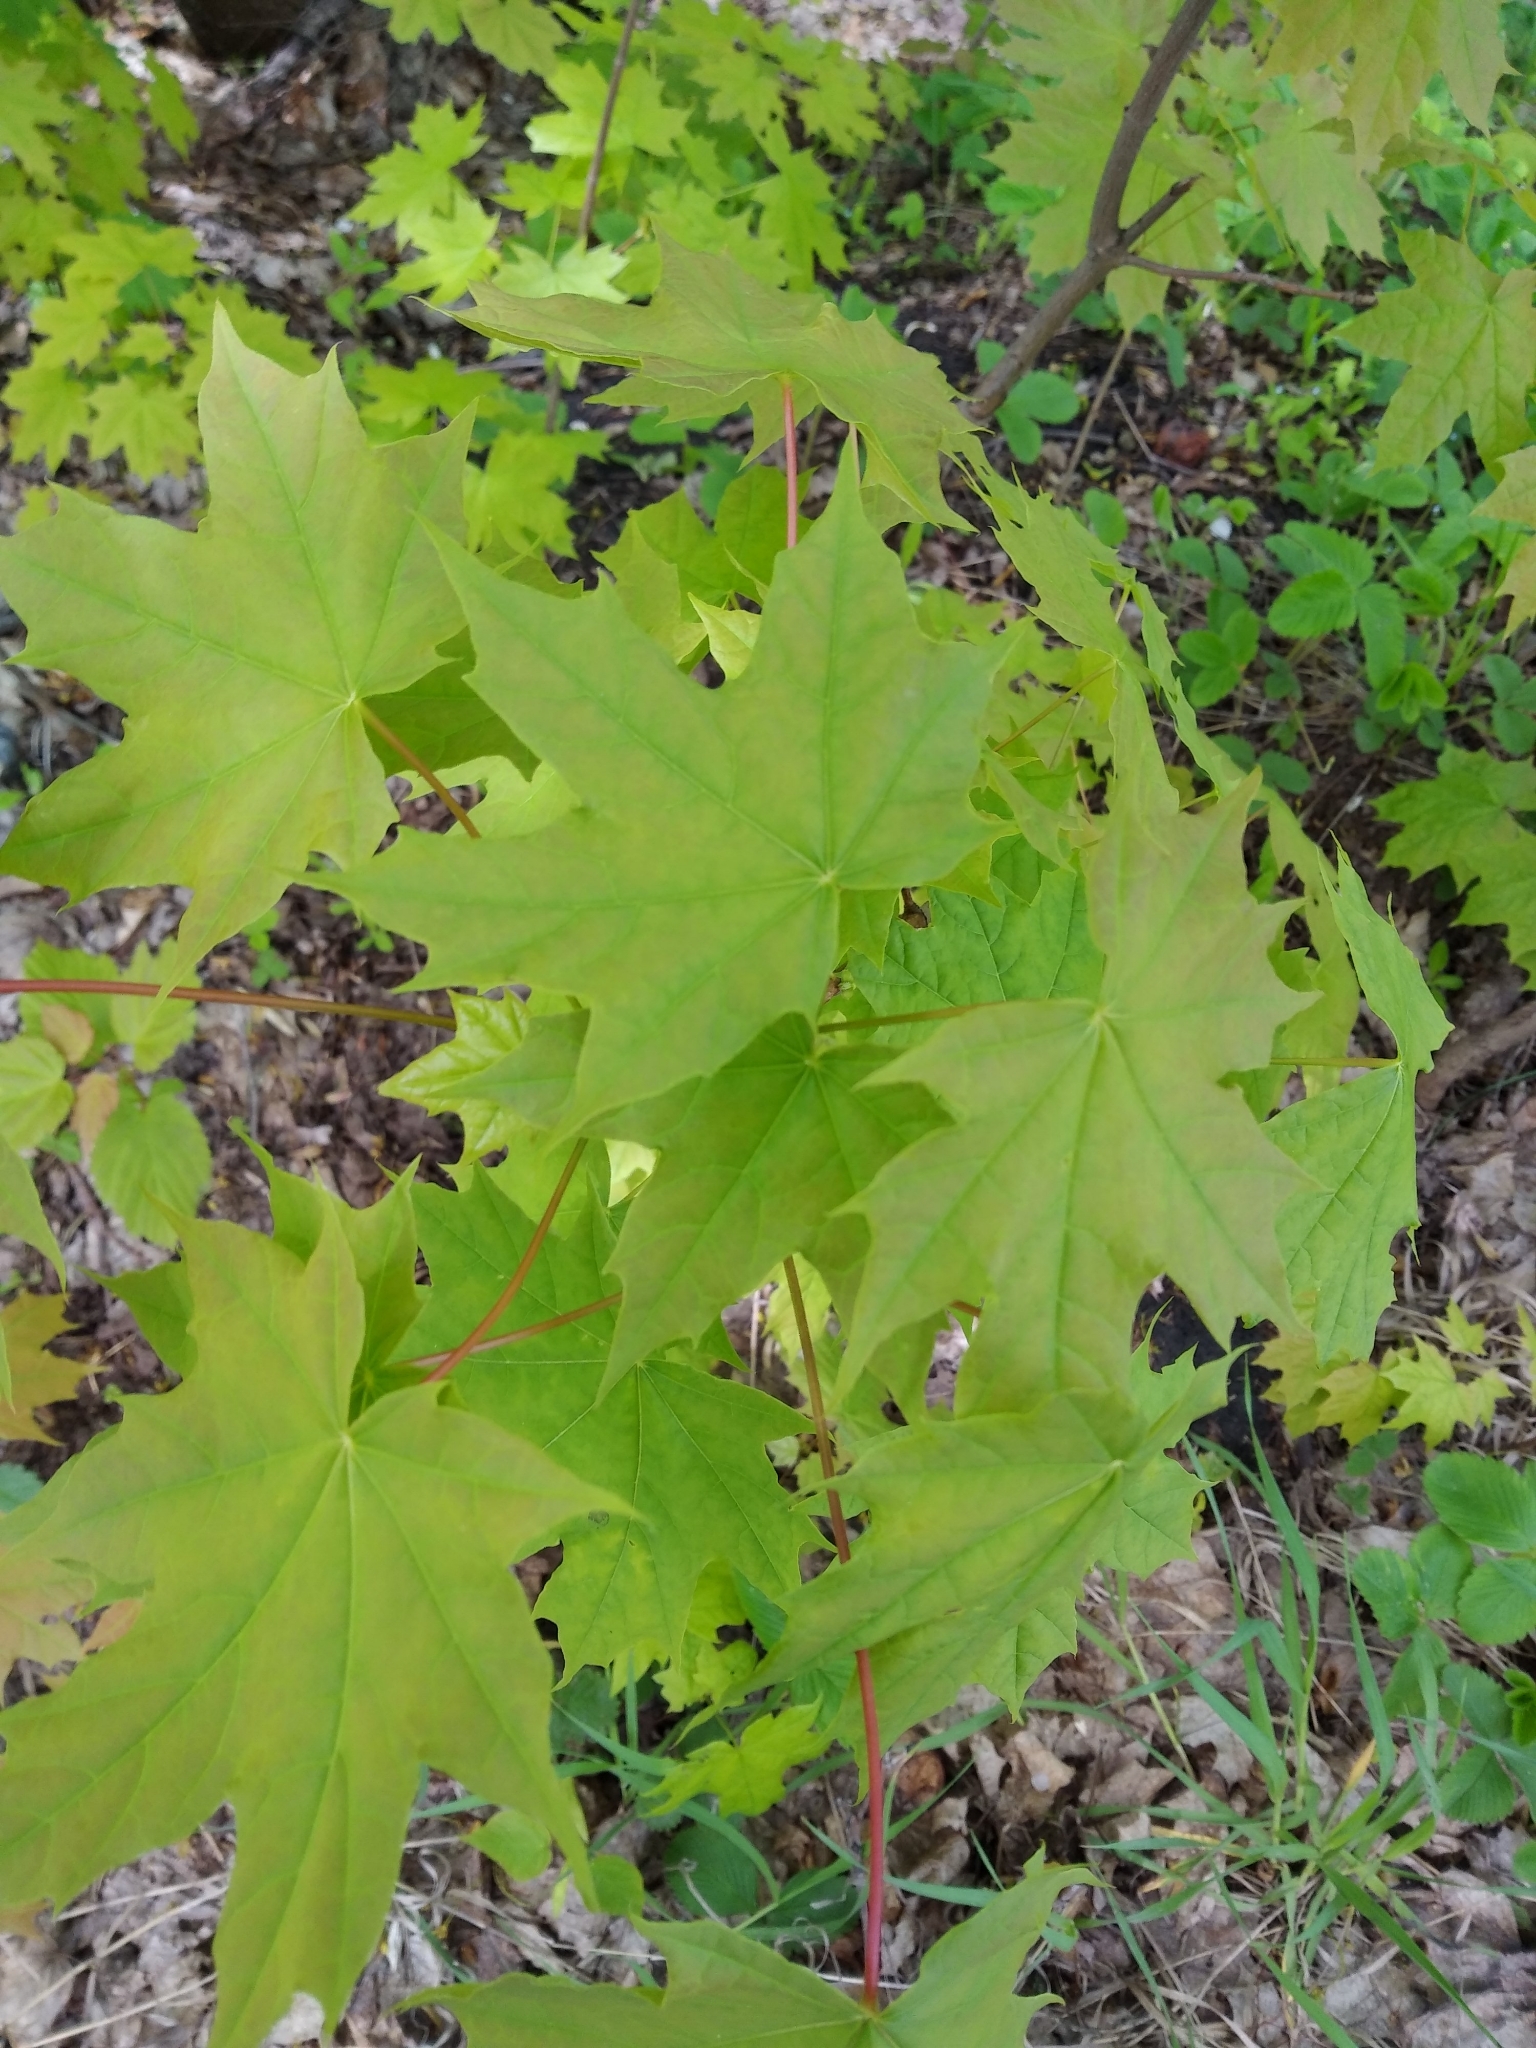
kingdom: Plantae
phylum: Tracheophyta
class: Magnoliopsida
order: Sapindales
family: Sapindaceae
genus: Acer
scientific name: Acer platanoides
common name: Norway maple
